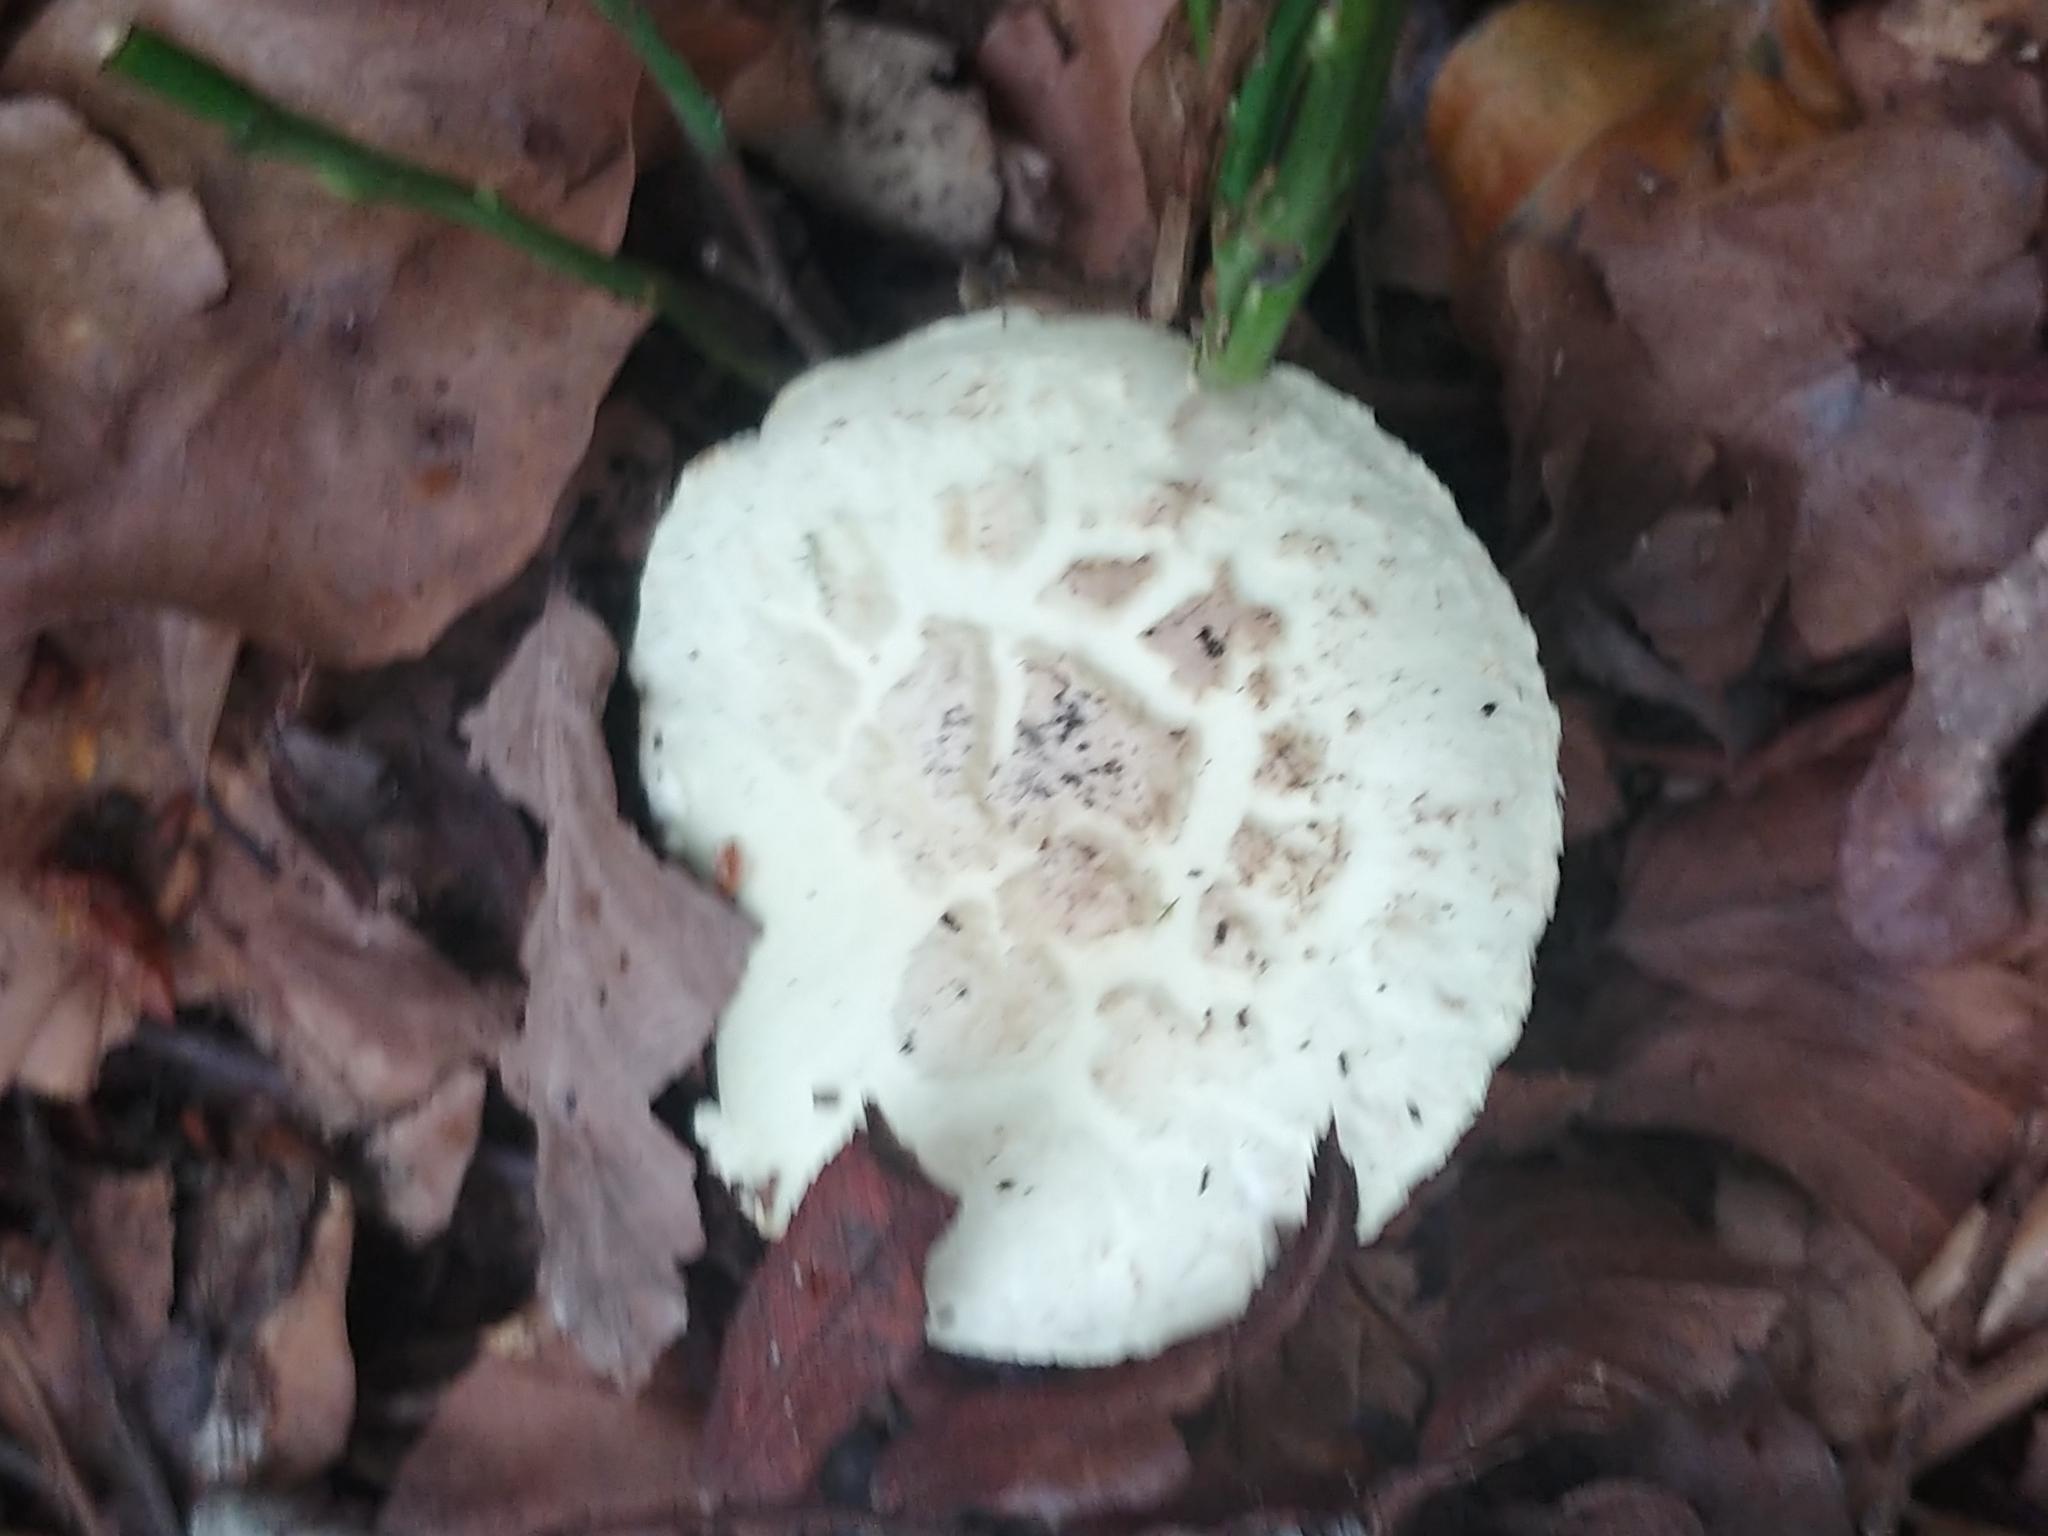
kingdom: Fungi
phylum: Basidiomycota
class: Agaricomycetes
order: Agaricales
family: Amanitaceae
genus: Amanita
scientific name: Amanita citrina
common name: False death-cap
